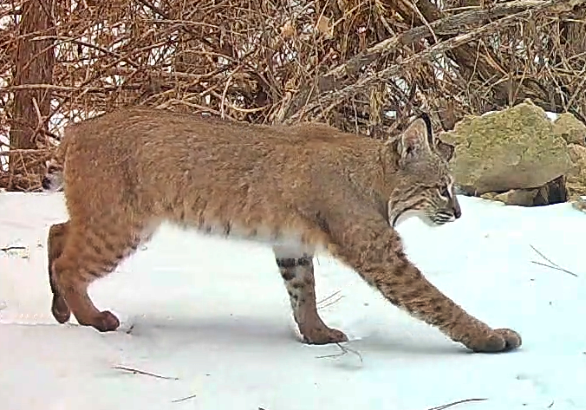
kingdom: Animalia
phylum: Chordata
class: Mammalia
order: Carnivora
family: Felidae
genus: Lynx
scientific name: Lynx rufus
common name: Bobcat
